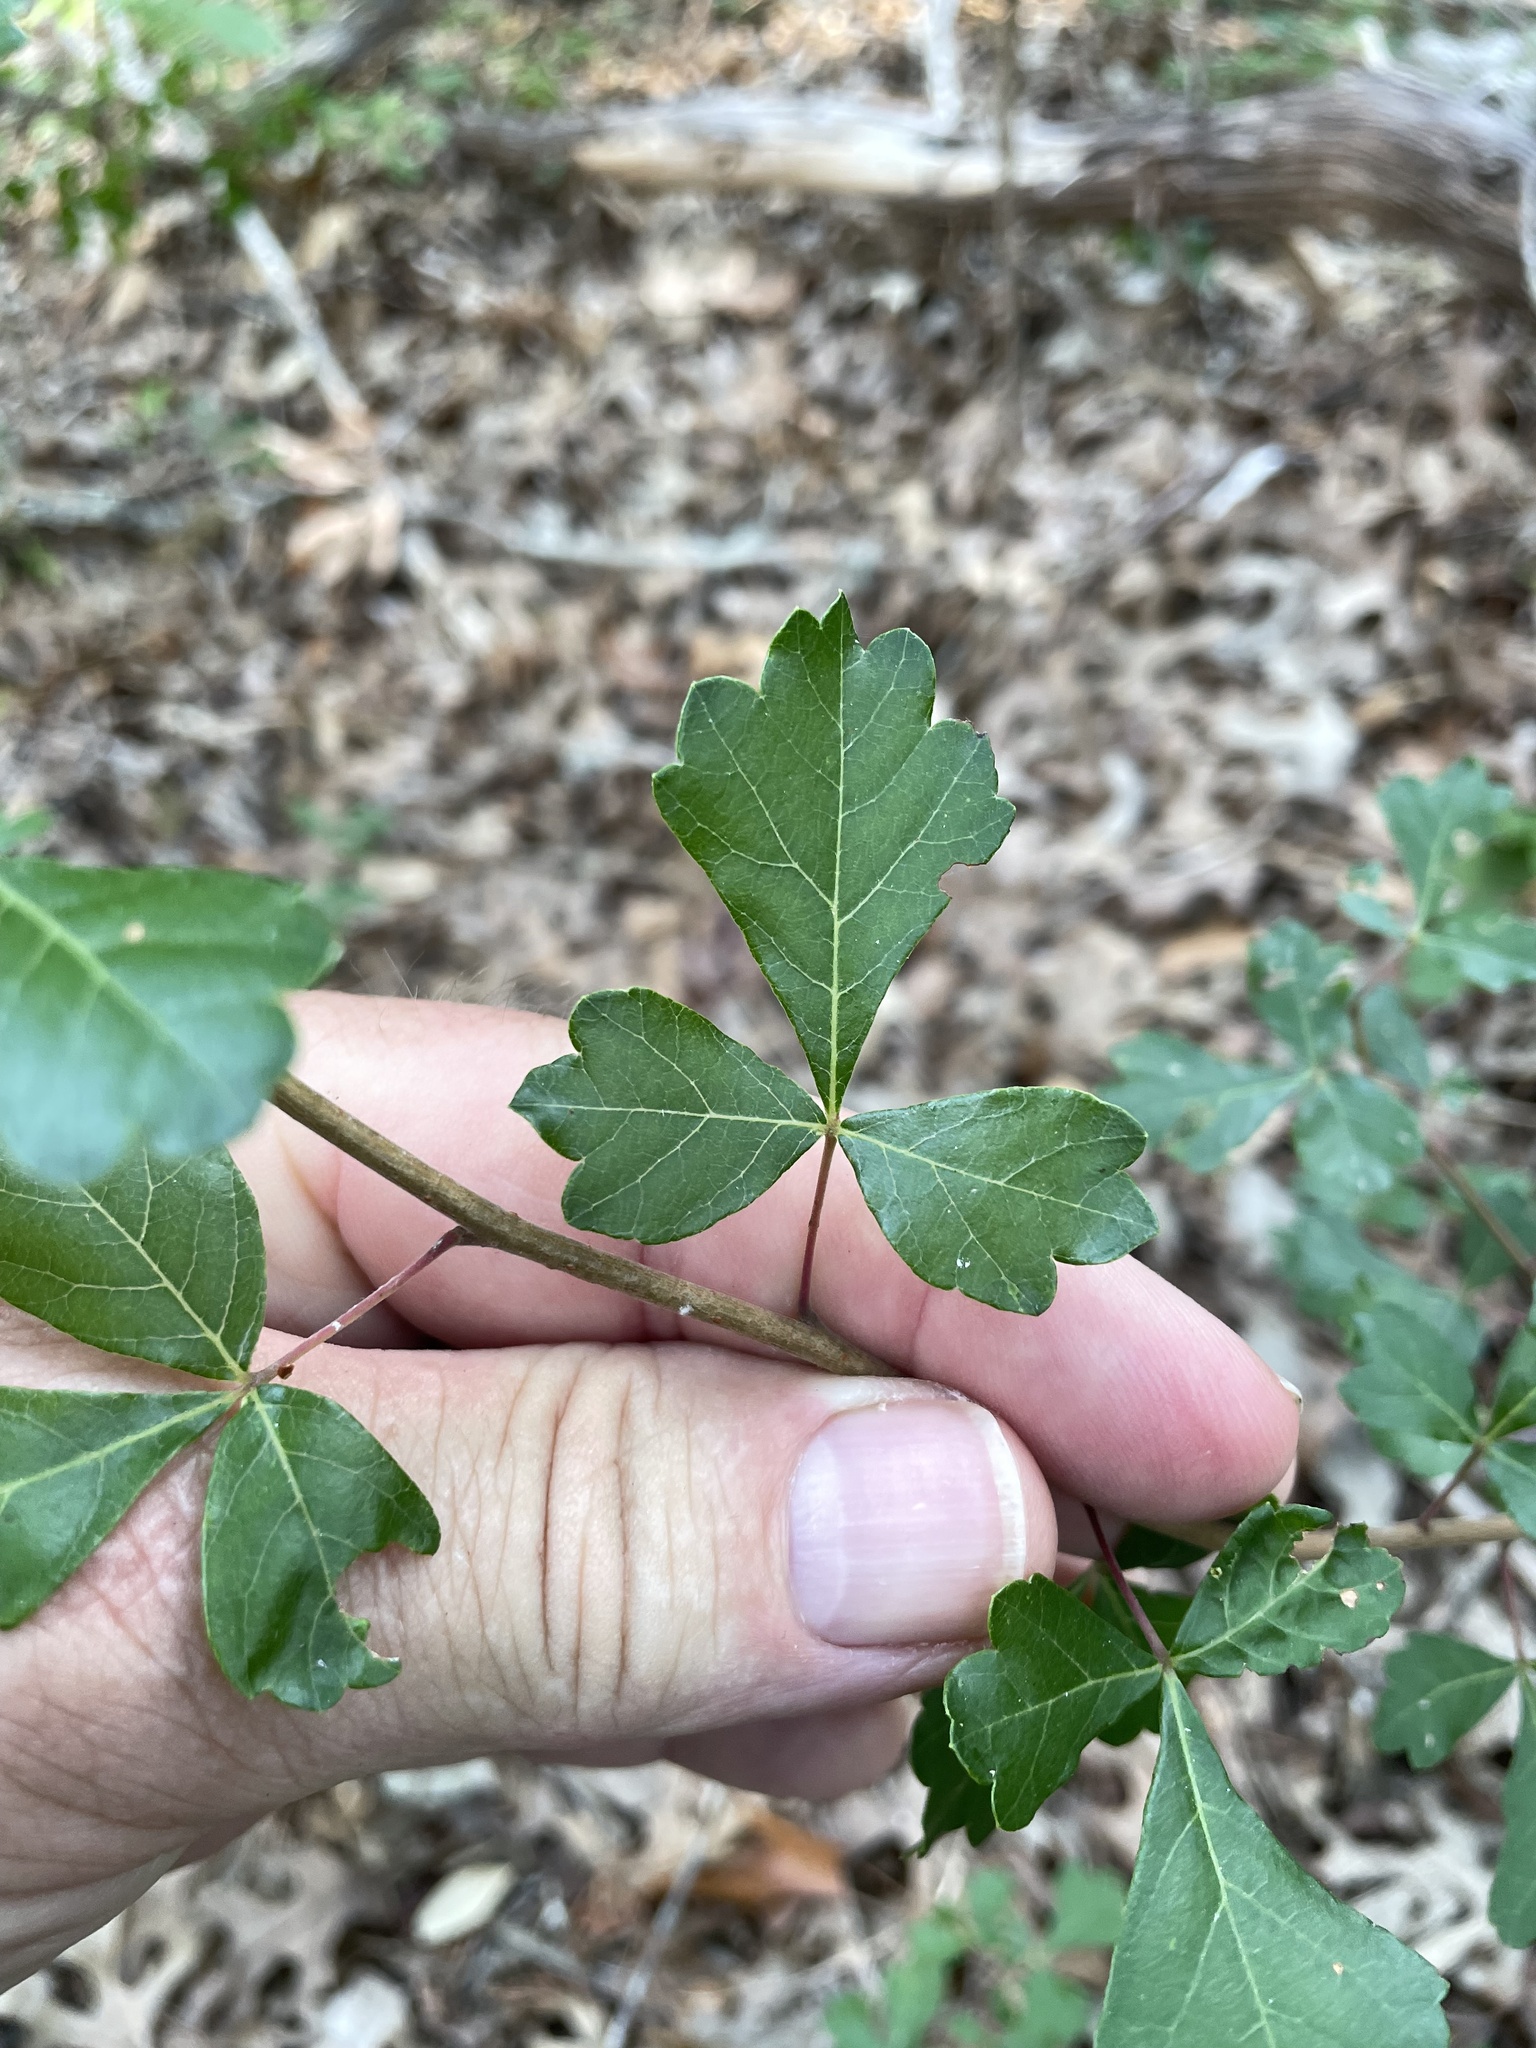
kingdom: Plantae
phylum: Tracheophyta
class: Magnoliopsida
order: Sapindales
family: Anacardiaceae
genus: Rhus
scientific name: Rhus aromatica
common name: Aromatic sumac
